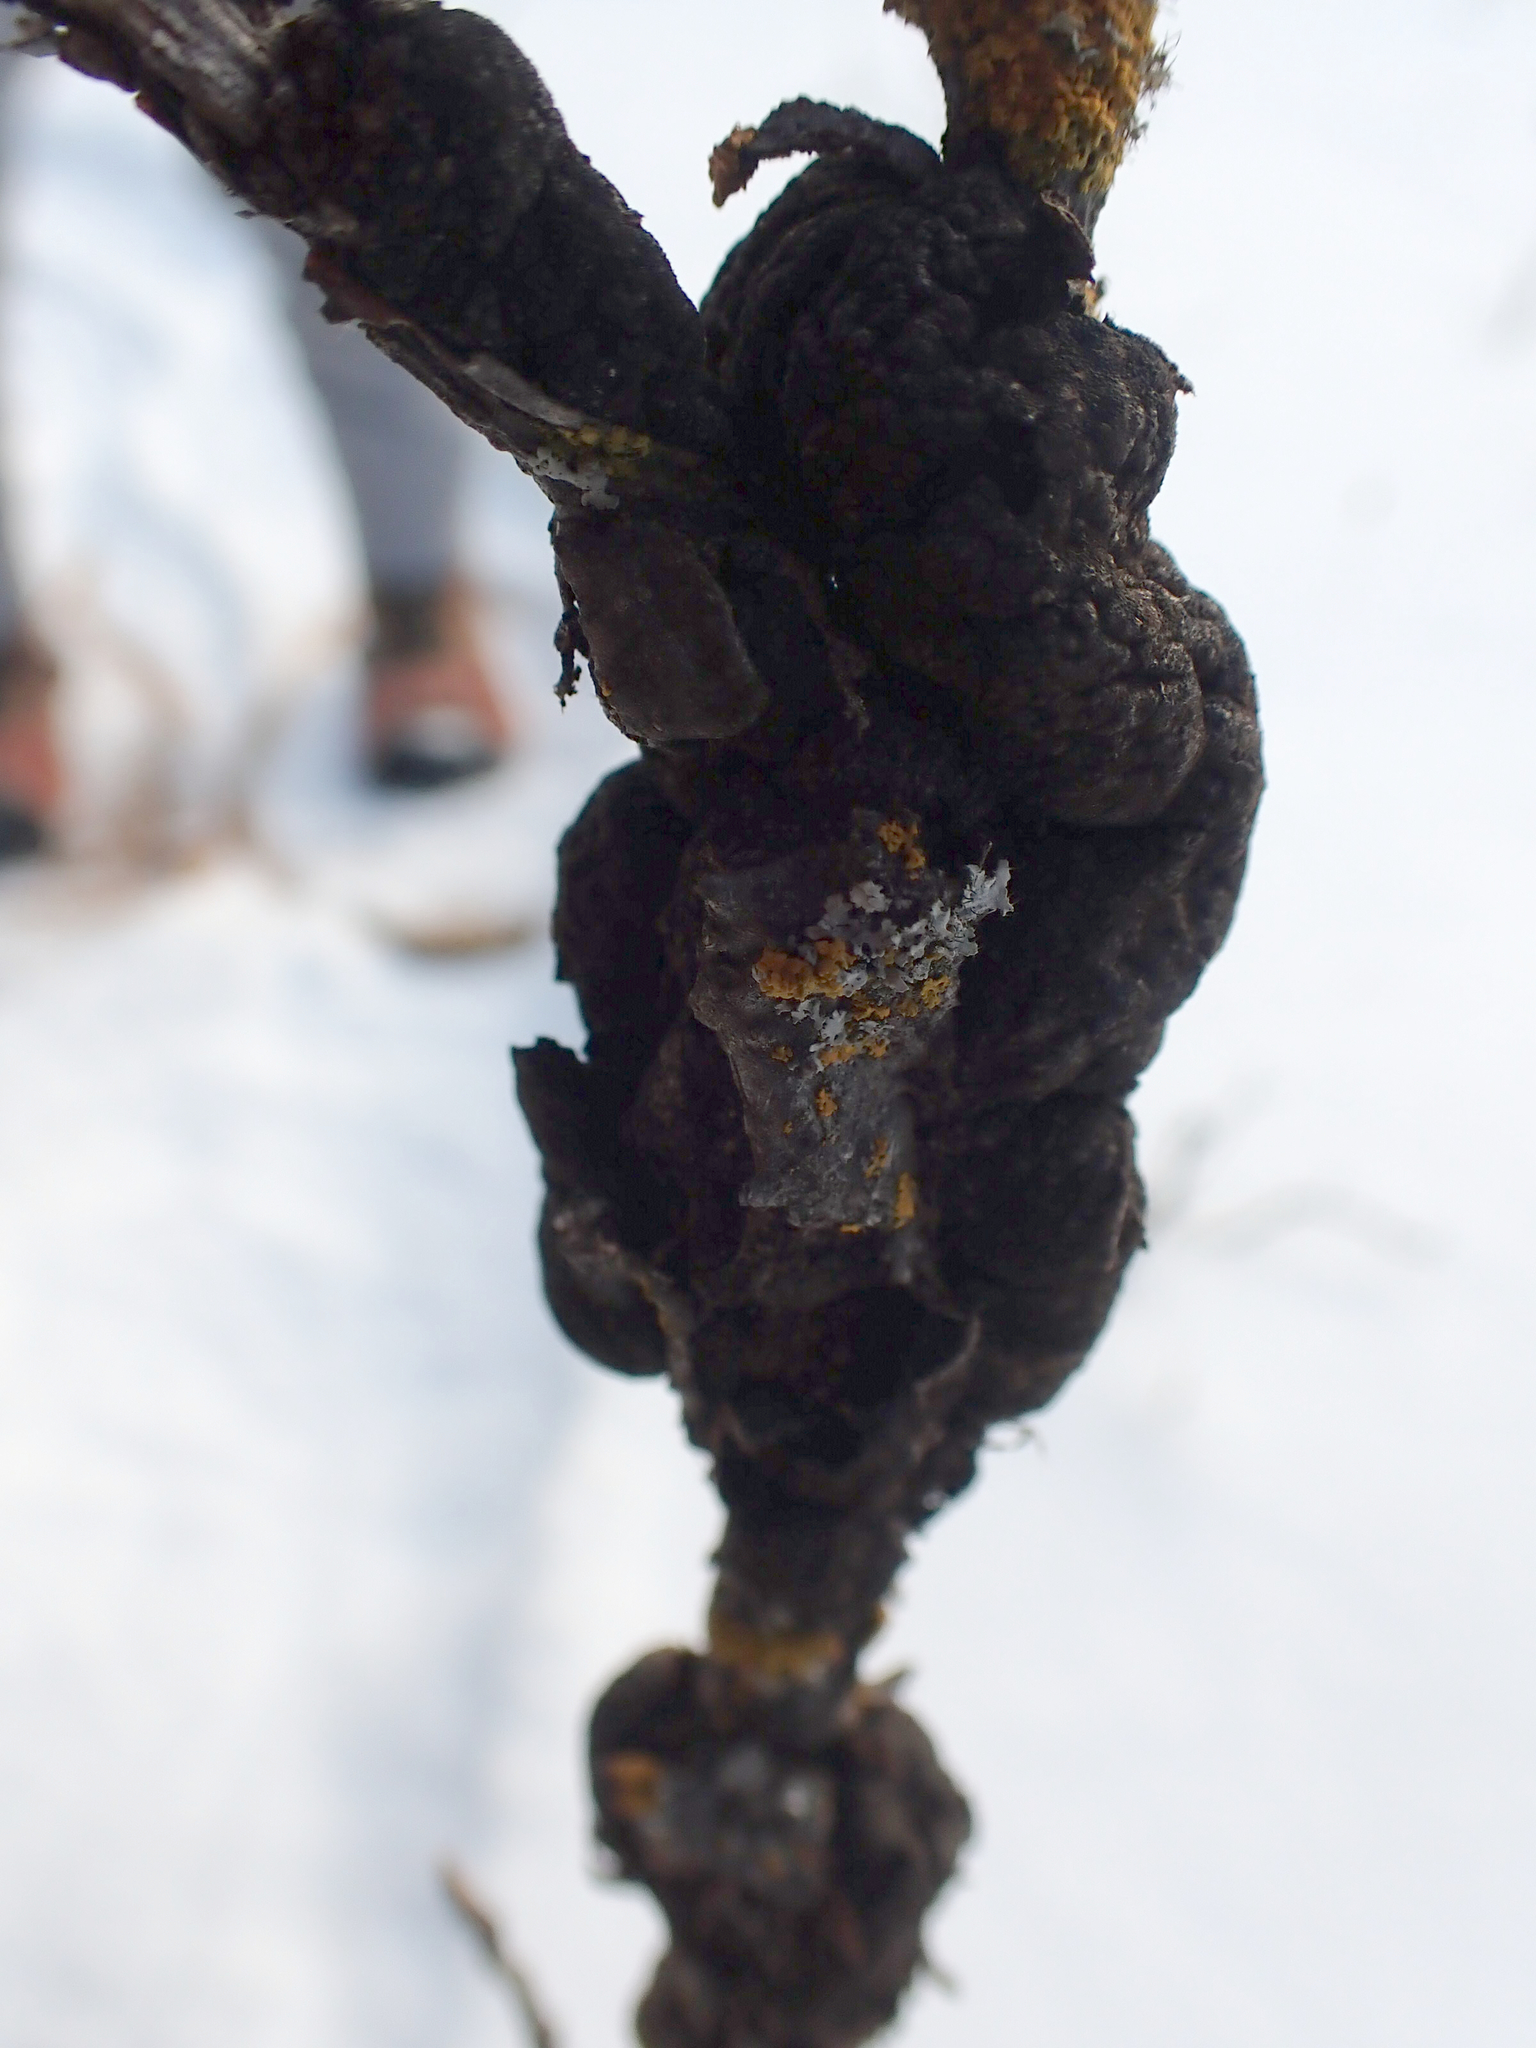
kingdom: Fungi
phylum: Ascomycota
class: Dothideomycetes
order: Venturiales
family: Venturiaceae
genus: Apiosporina
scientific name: Apiosporina morbosa
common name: Black knot
